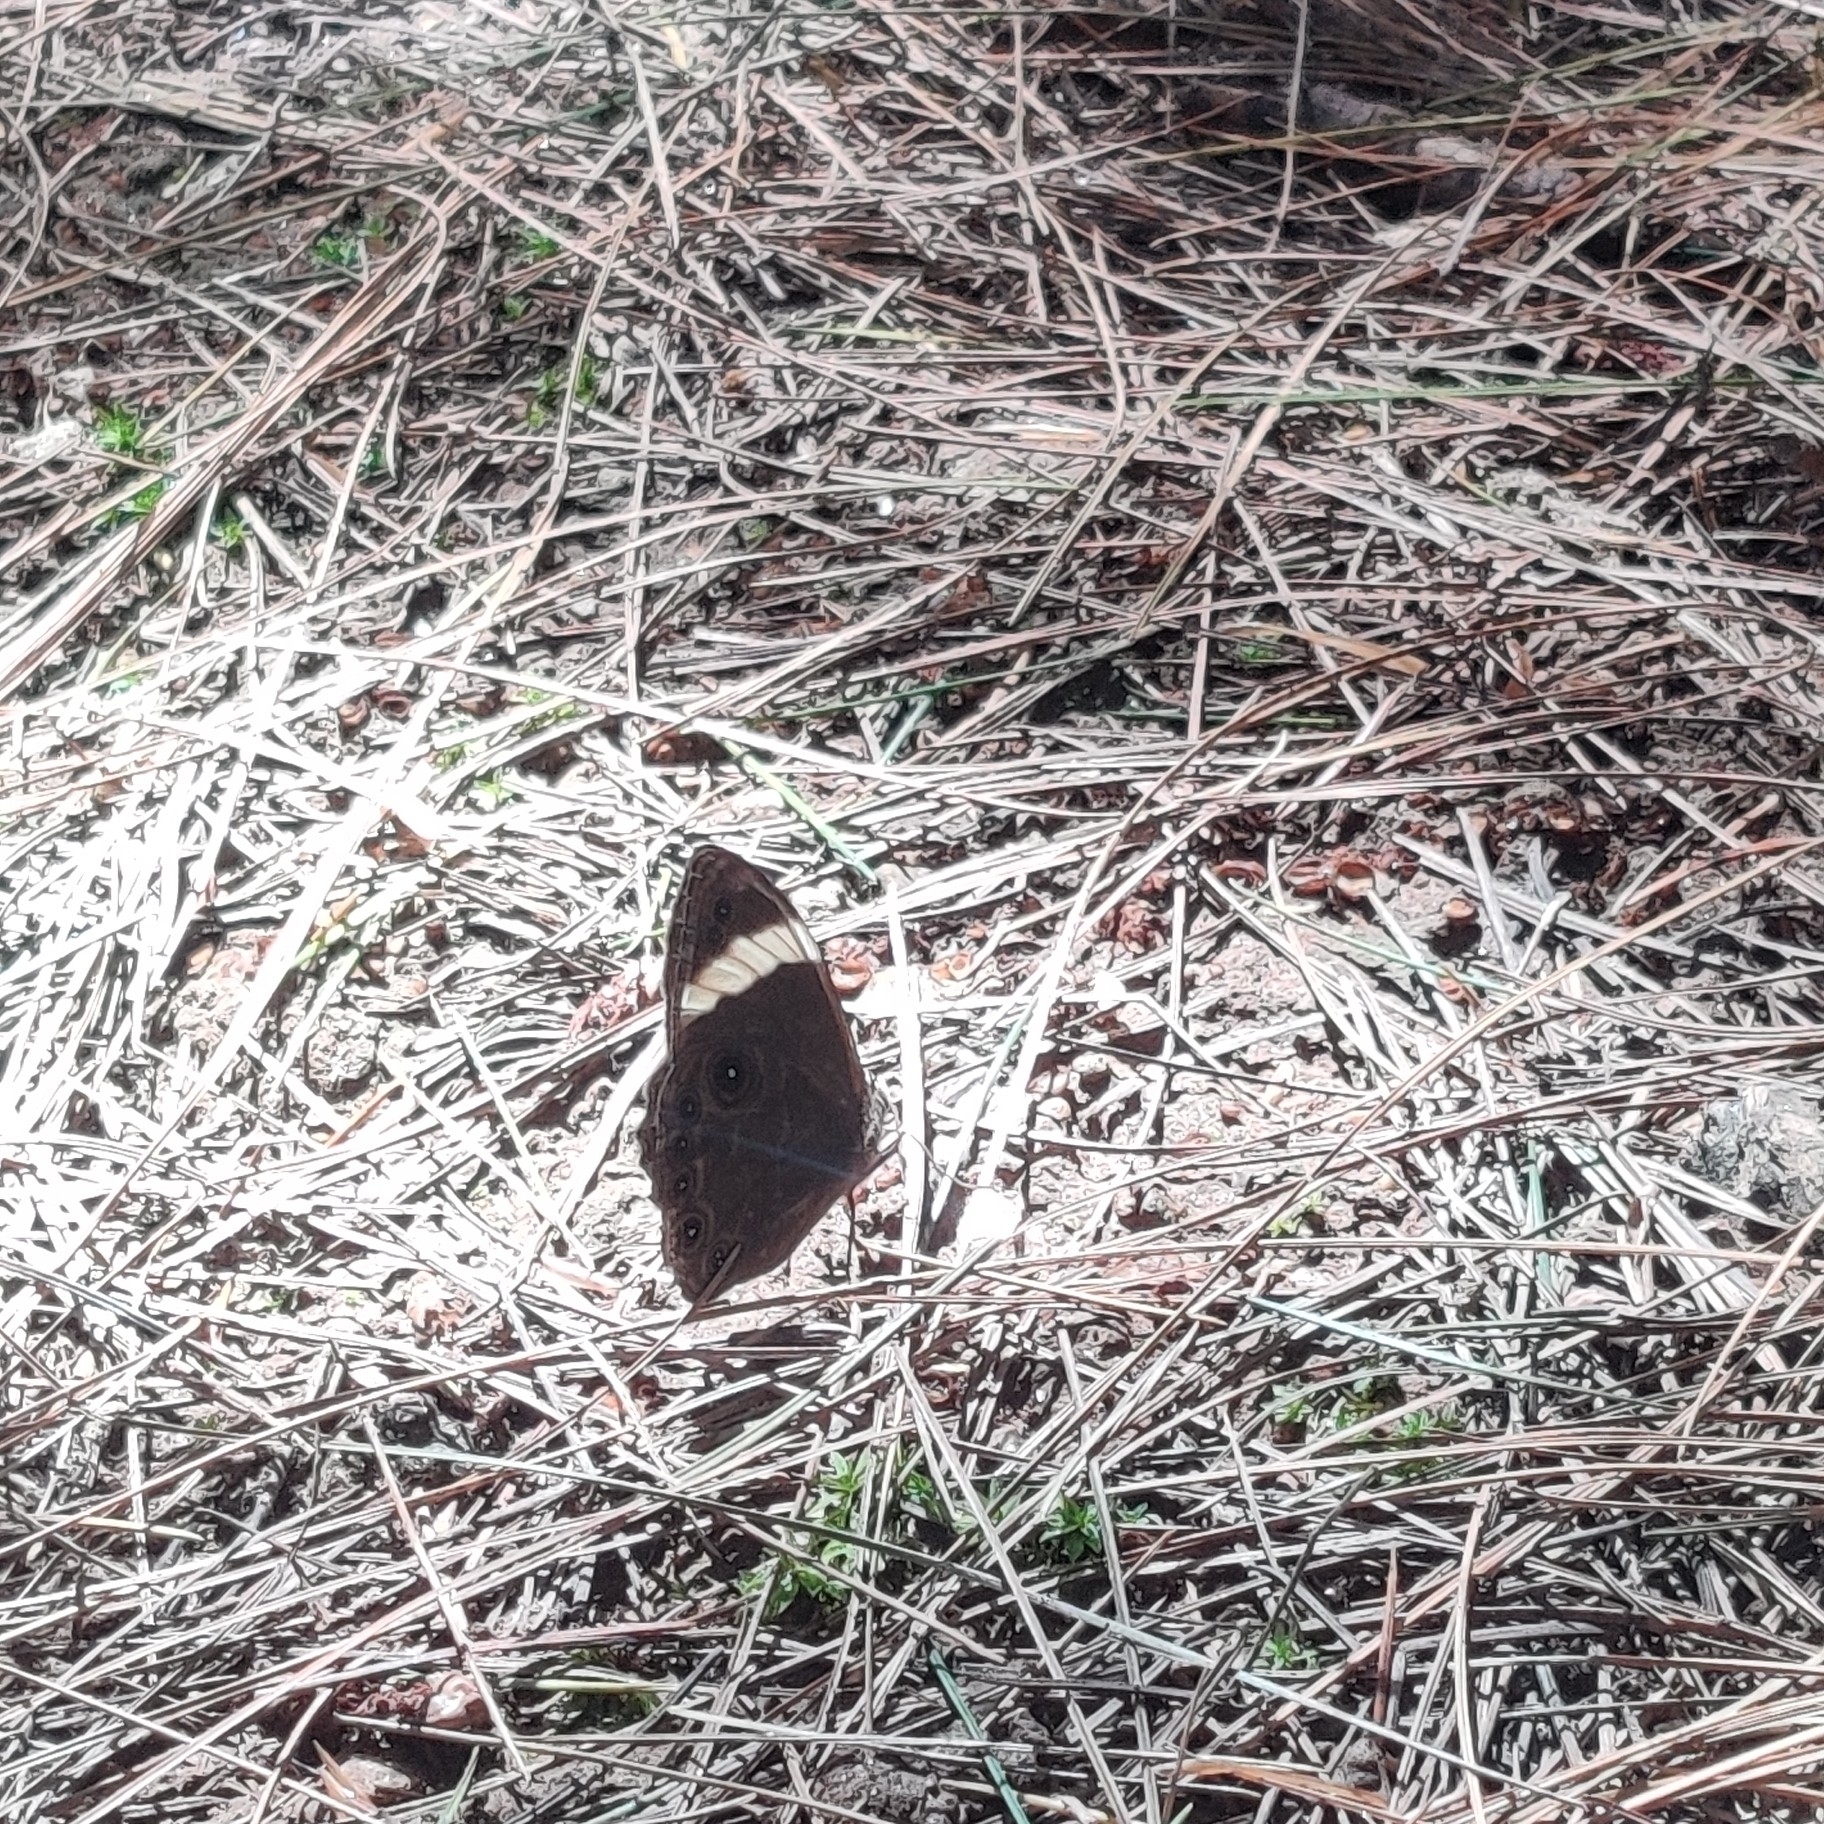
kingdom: Animalia
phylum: Arthropoda
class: Insecta
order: Lepidoptera
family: Nymphalidae
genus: Lethe
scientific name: Lethe verma
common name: Straight-banded treebrown
